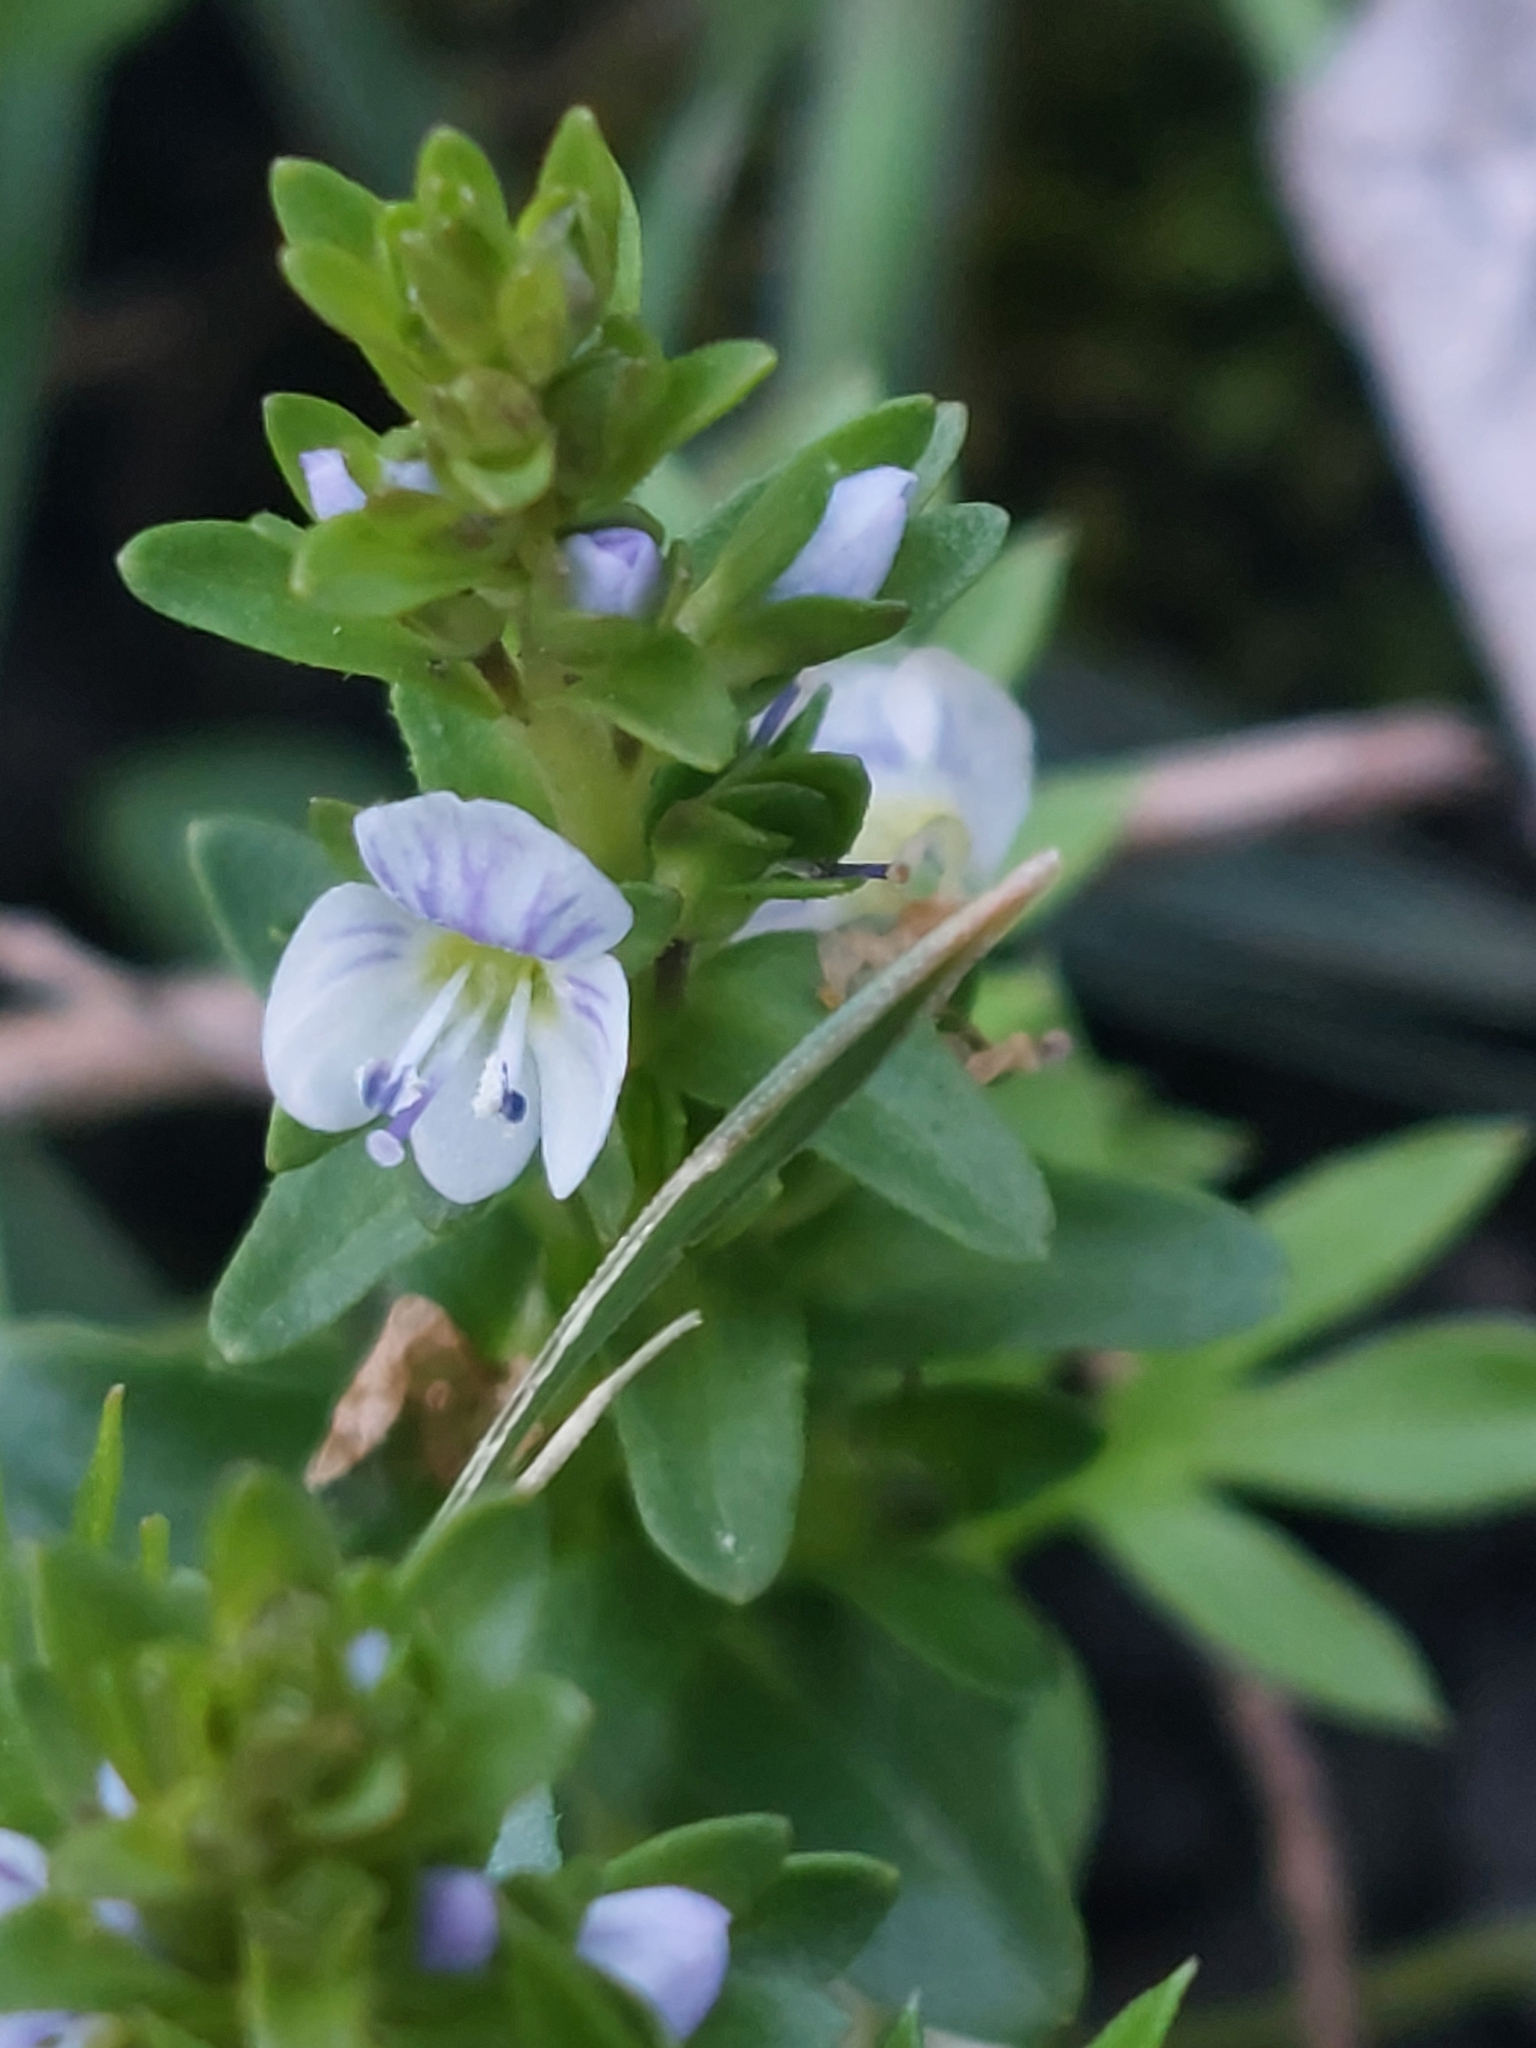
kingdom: Plantae
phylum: Tracheophyta
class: Magnoliopsida
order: Lamiales
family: Plantaginaceae
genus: Veronica
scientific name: Veronica serpyllifolia
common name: Thyme-leaved speedwell
